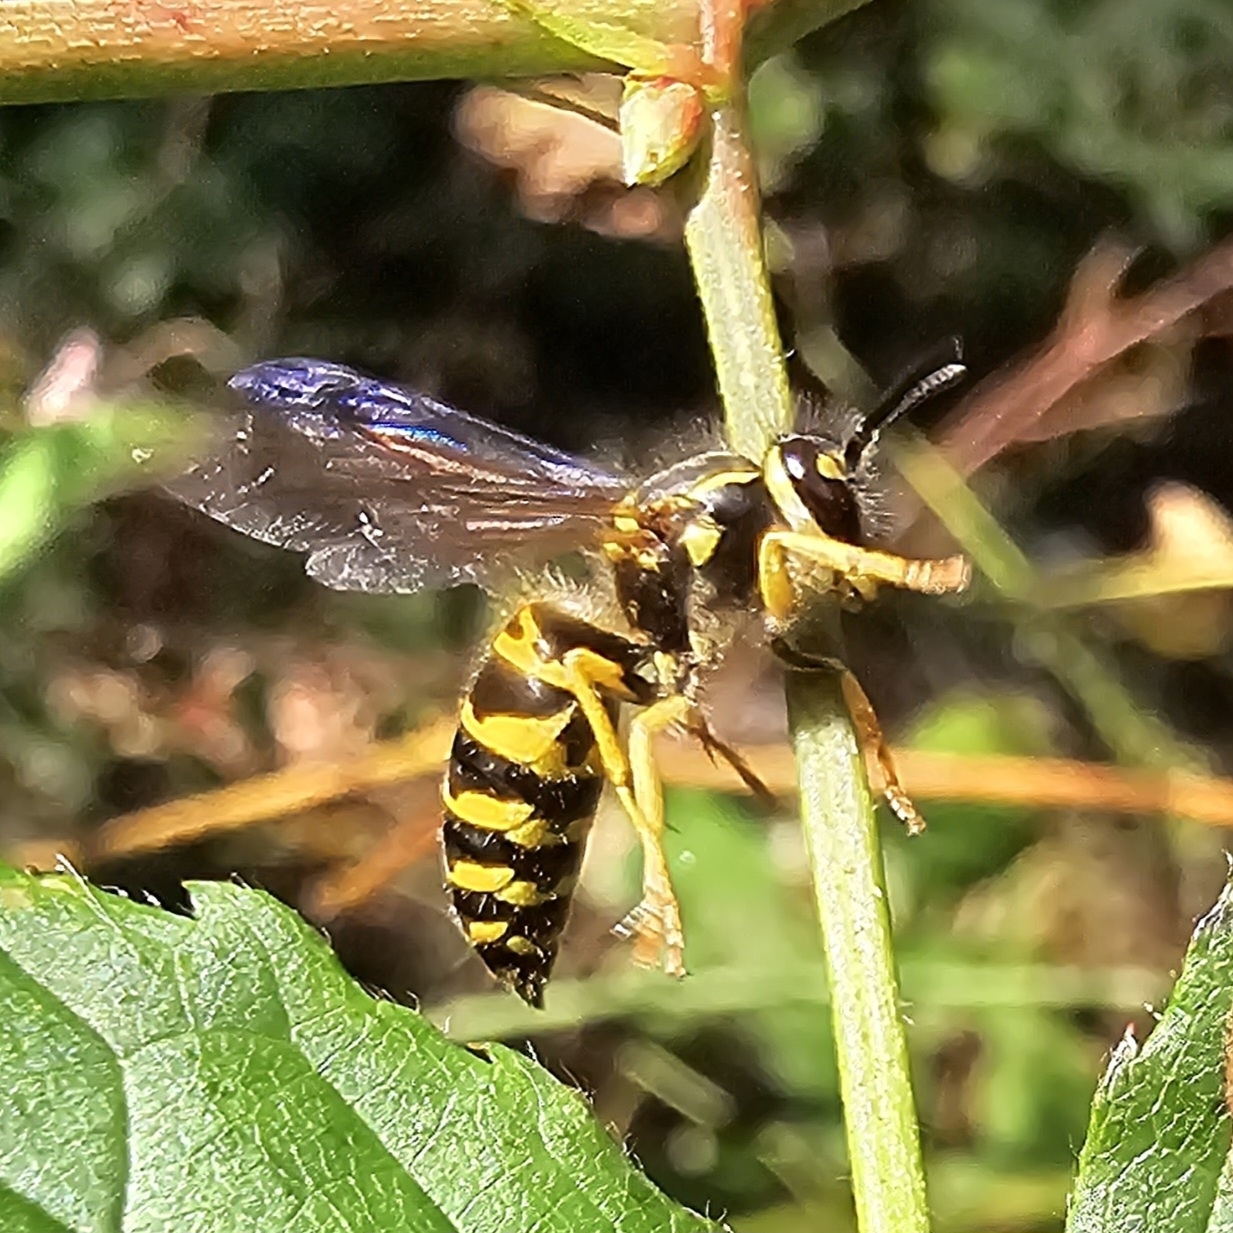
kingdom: Animalia
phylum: Arthropoda
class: Insecta
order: Hymenoptera
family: Vespidae
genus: Vespula
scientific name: Vespula maculifrons
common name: Eastern yellowjacket
